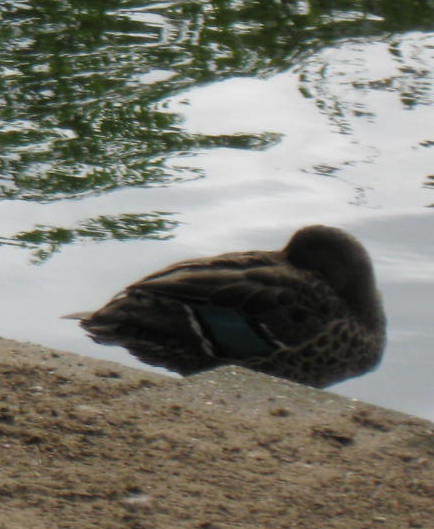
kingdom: Animalia
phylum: Chordata
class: Aves
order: Anseriformes
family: Anatidae
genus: Anas
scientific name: Anas platyrhynchos
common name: Mallard
